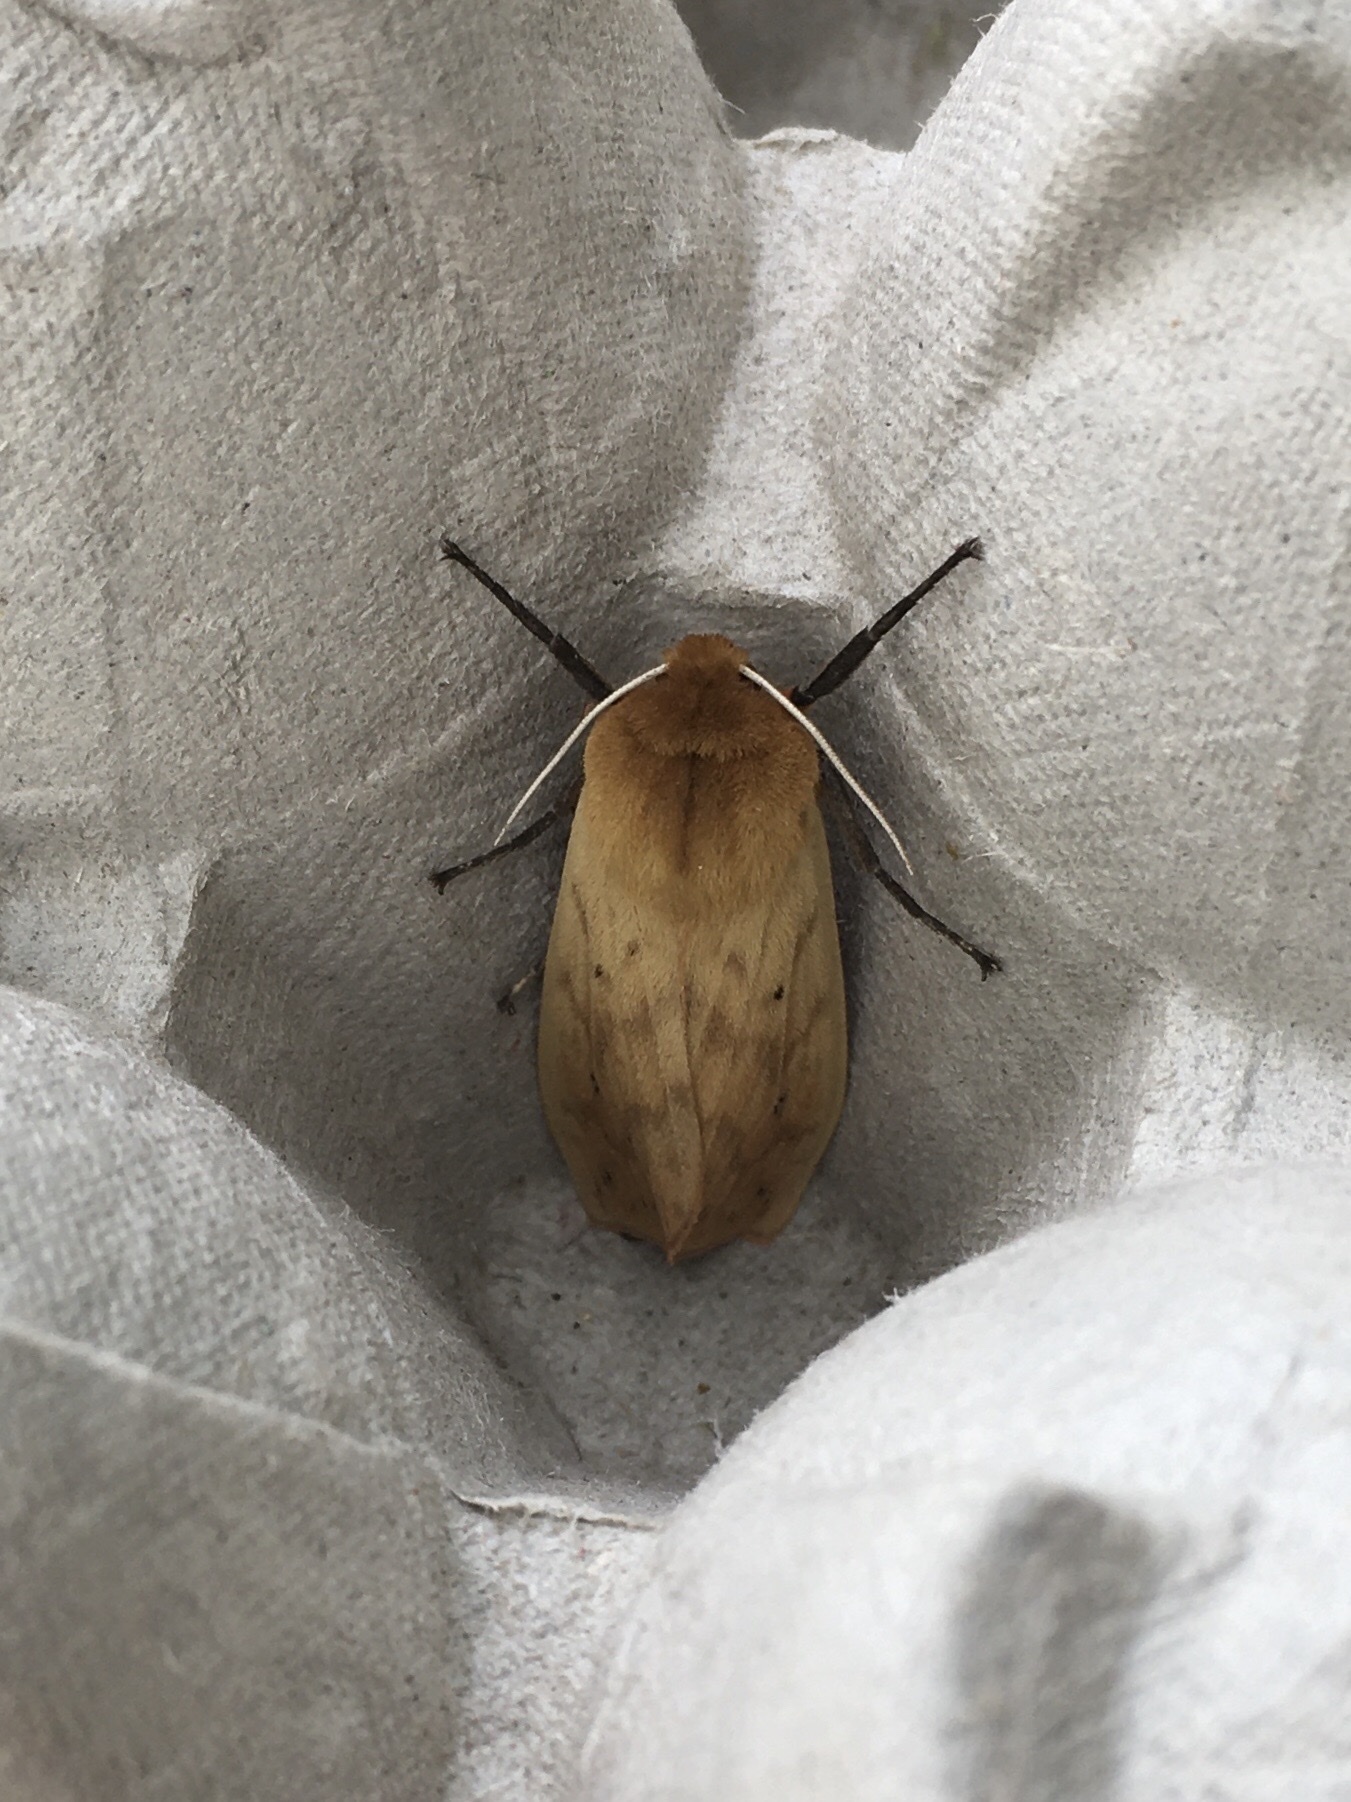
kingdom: Animalia
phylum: Arthropoda
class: Insecta
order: Lepidoptera
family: Erebidae
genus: Pyrrharctia
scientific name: Pyrrharctia isabella
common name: Isabella tiger moth
